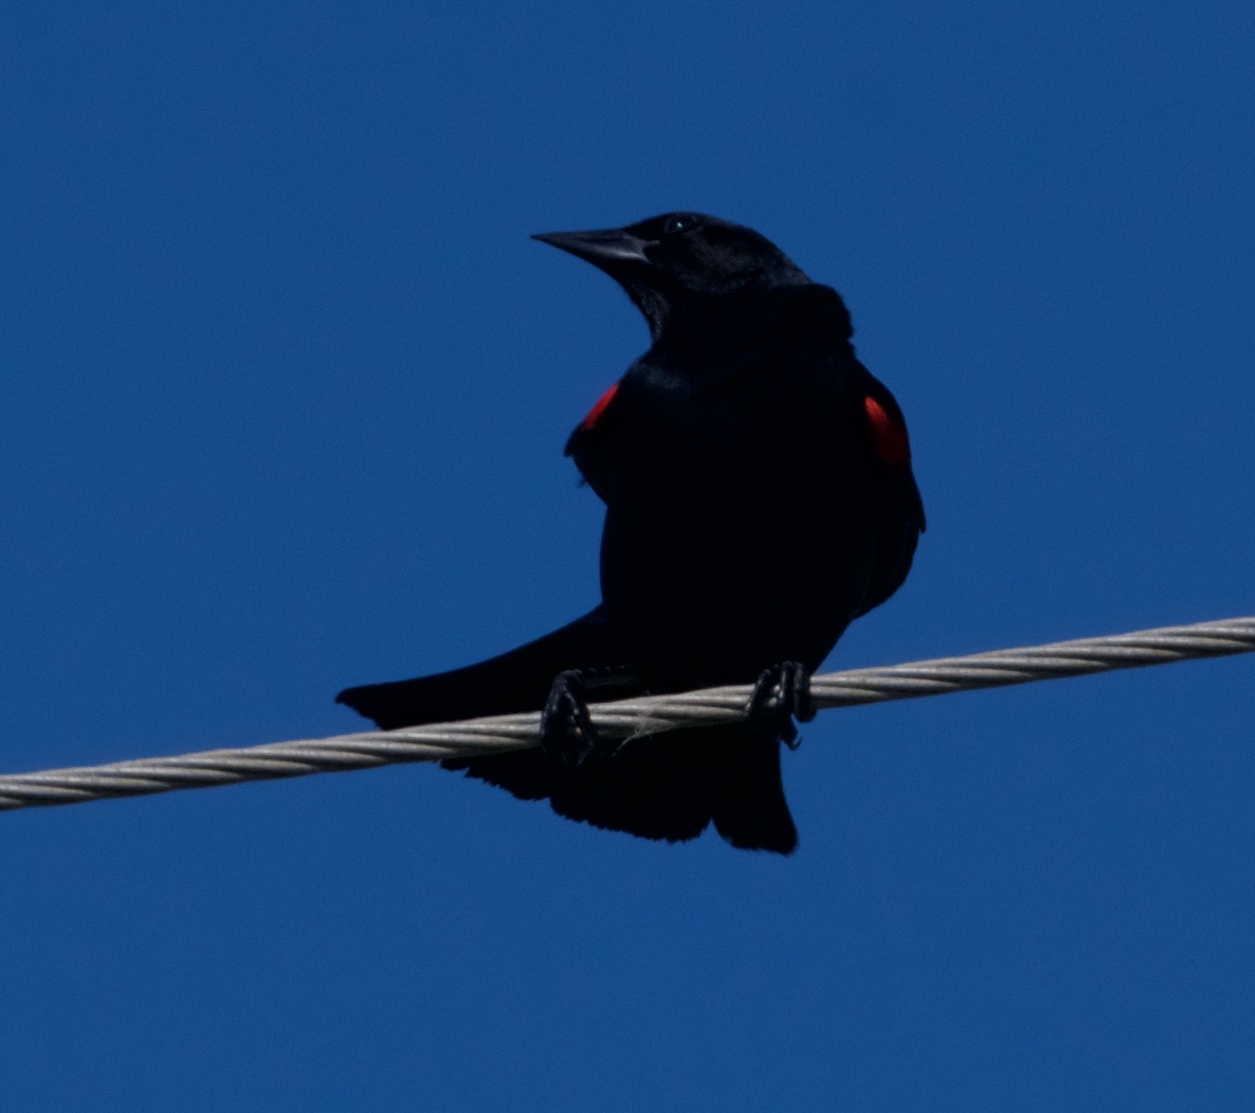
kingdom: Animalia
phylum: Chordata
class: Aves
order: Passeriformes
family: Icteridae
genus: Agelaius
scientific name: Agelaius phoeniceus
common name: Red-winged blackbird
